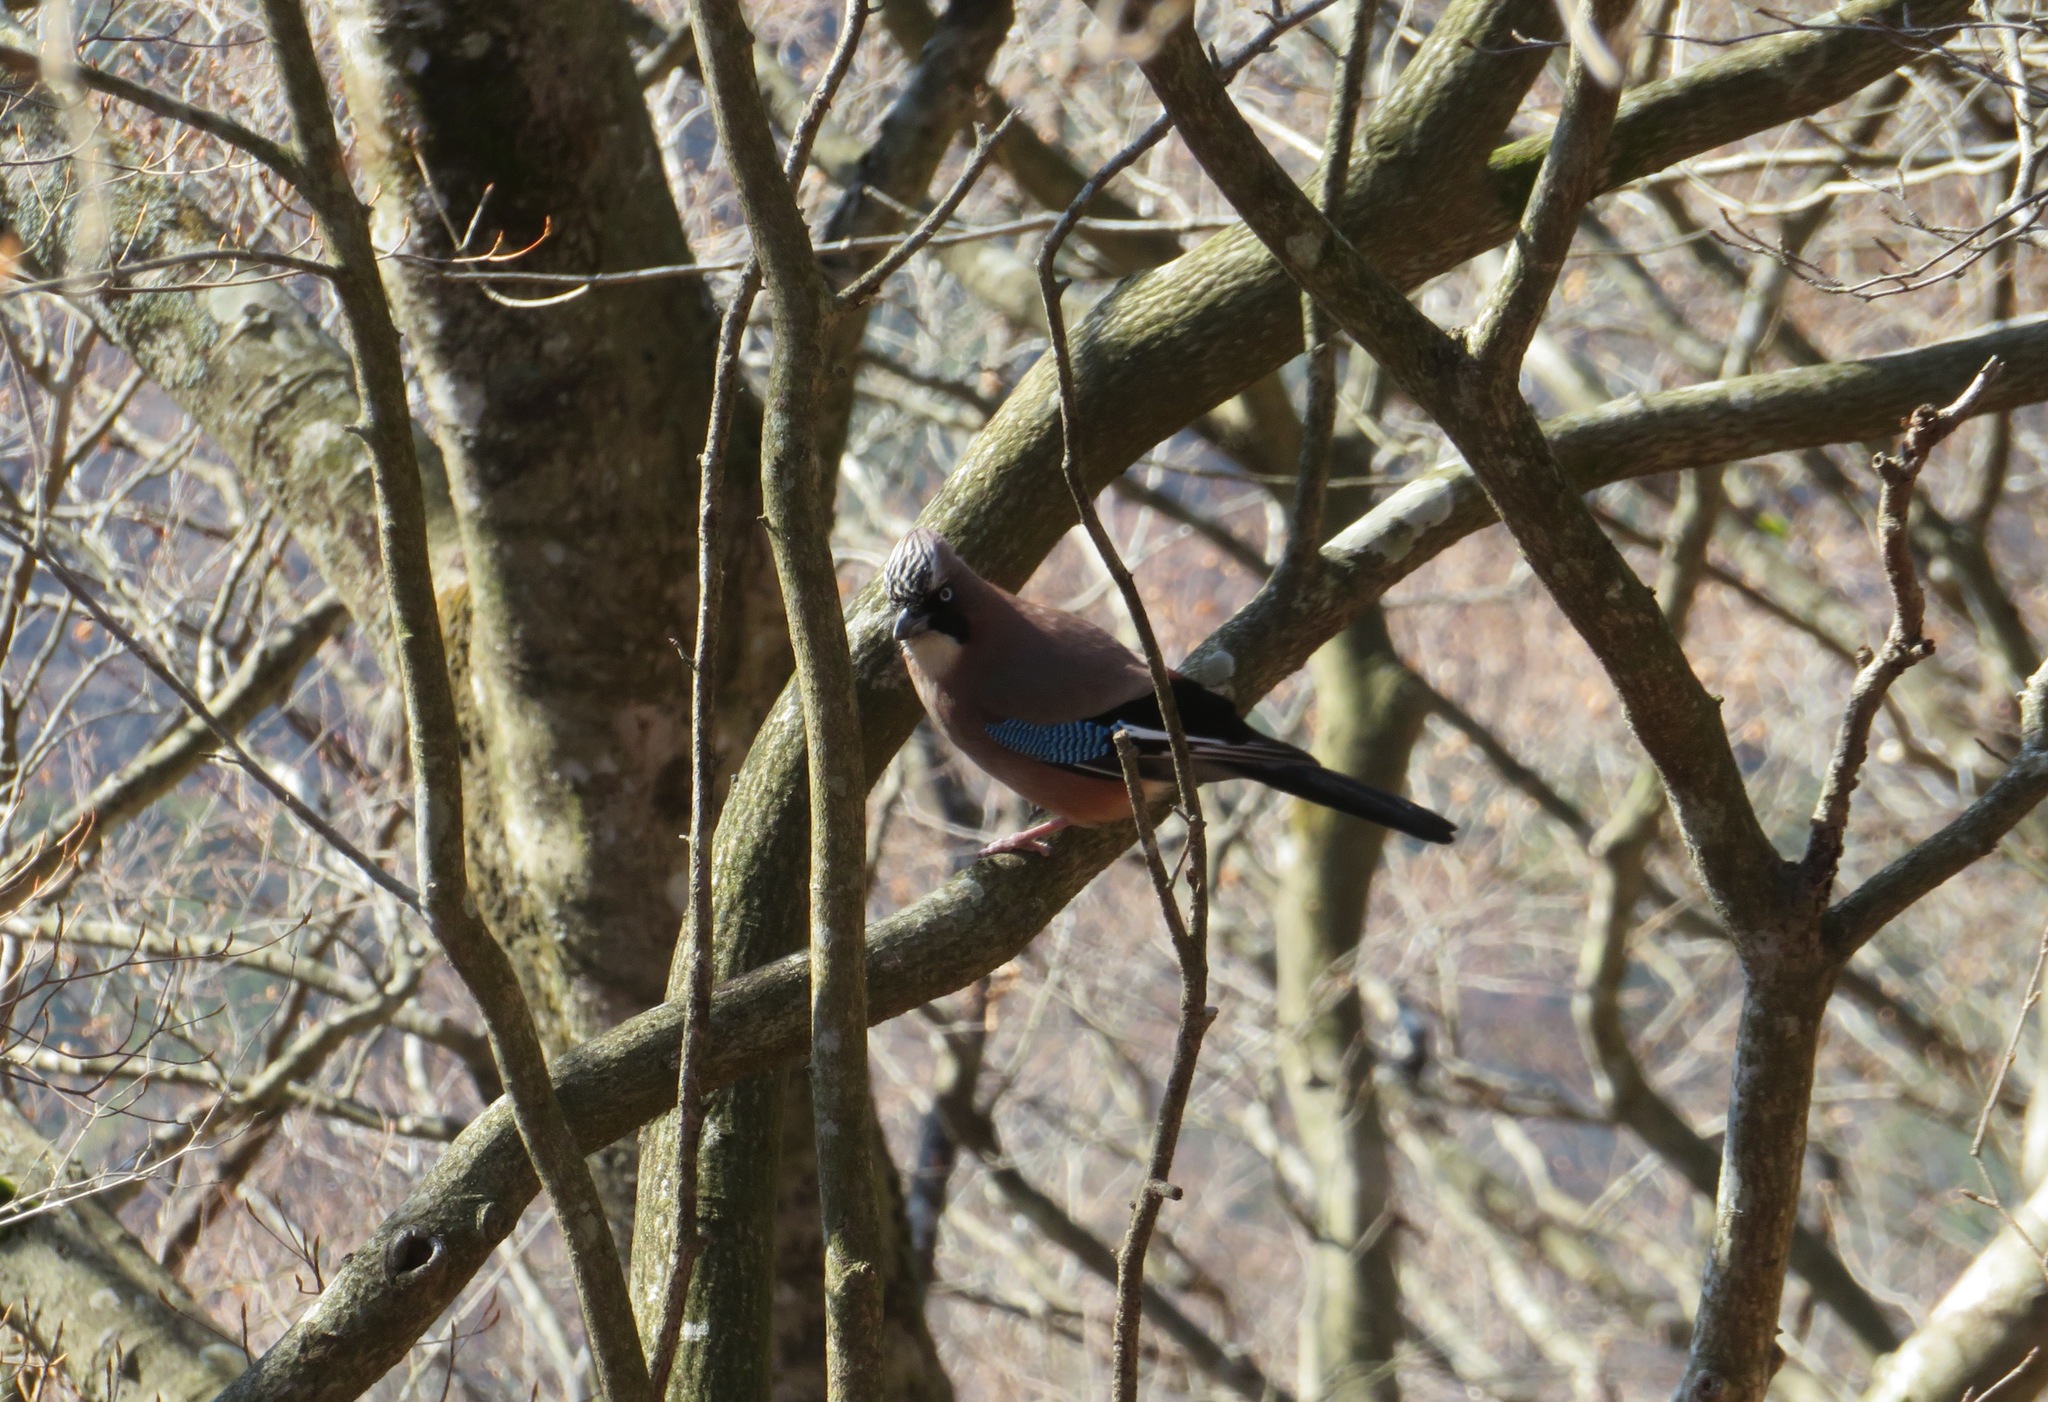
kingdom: Animalia
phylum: Chordata
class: Aves
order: Passeriformes
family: Corvidae
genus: Garrulus
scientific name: Garrulus glandarius
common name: Eurasian jay
